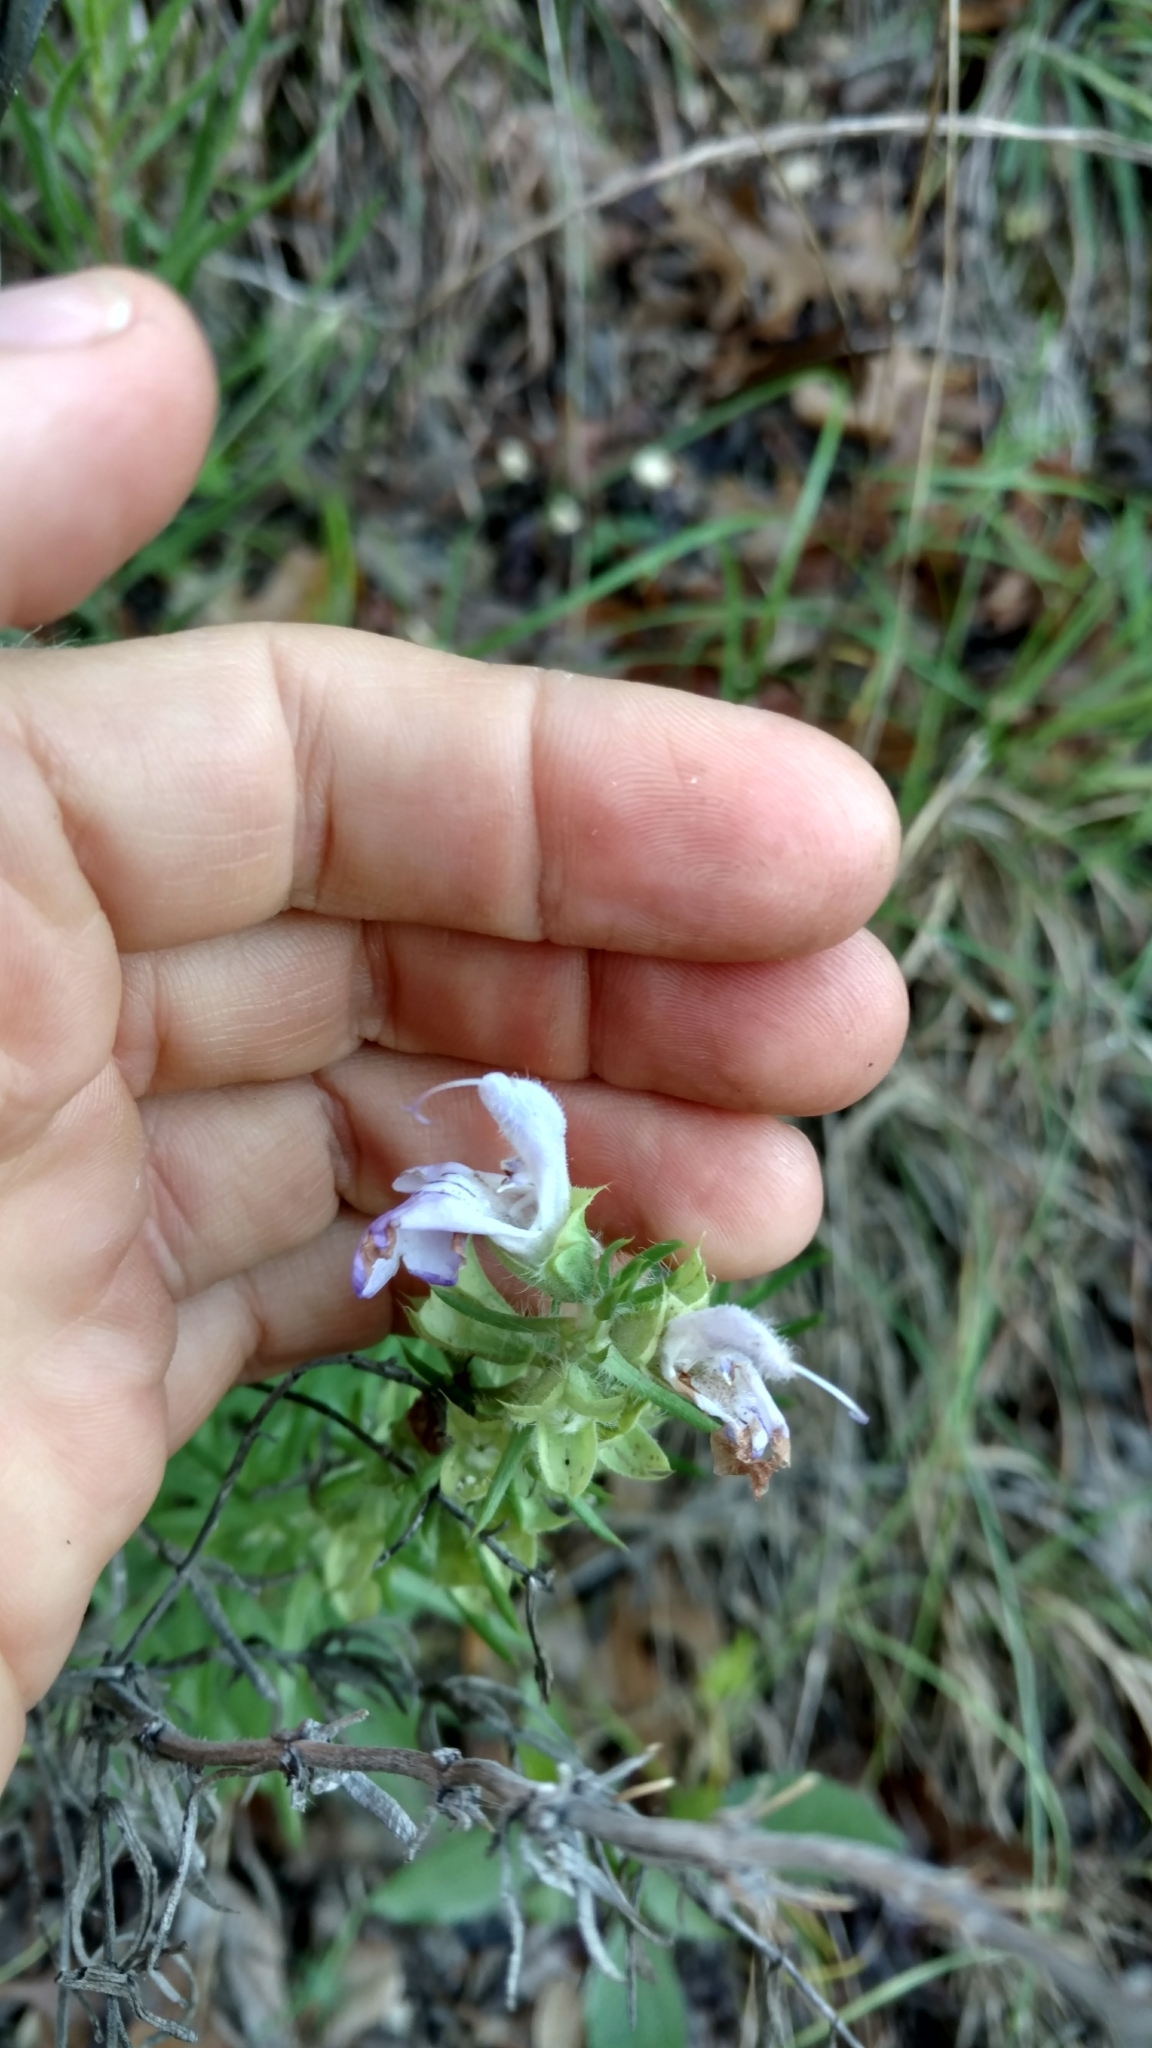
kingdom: Plantae
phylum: Tracheophyta
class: Magnoliopsida
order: Lamiales
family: Lamiaceae
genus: Salvia
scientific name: Salvia engelmannii
